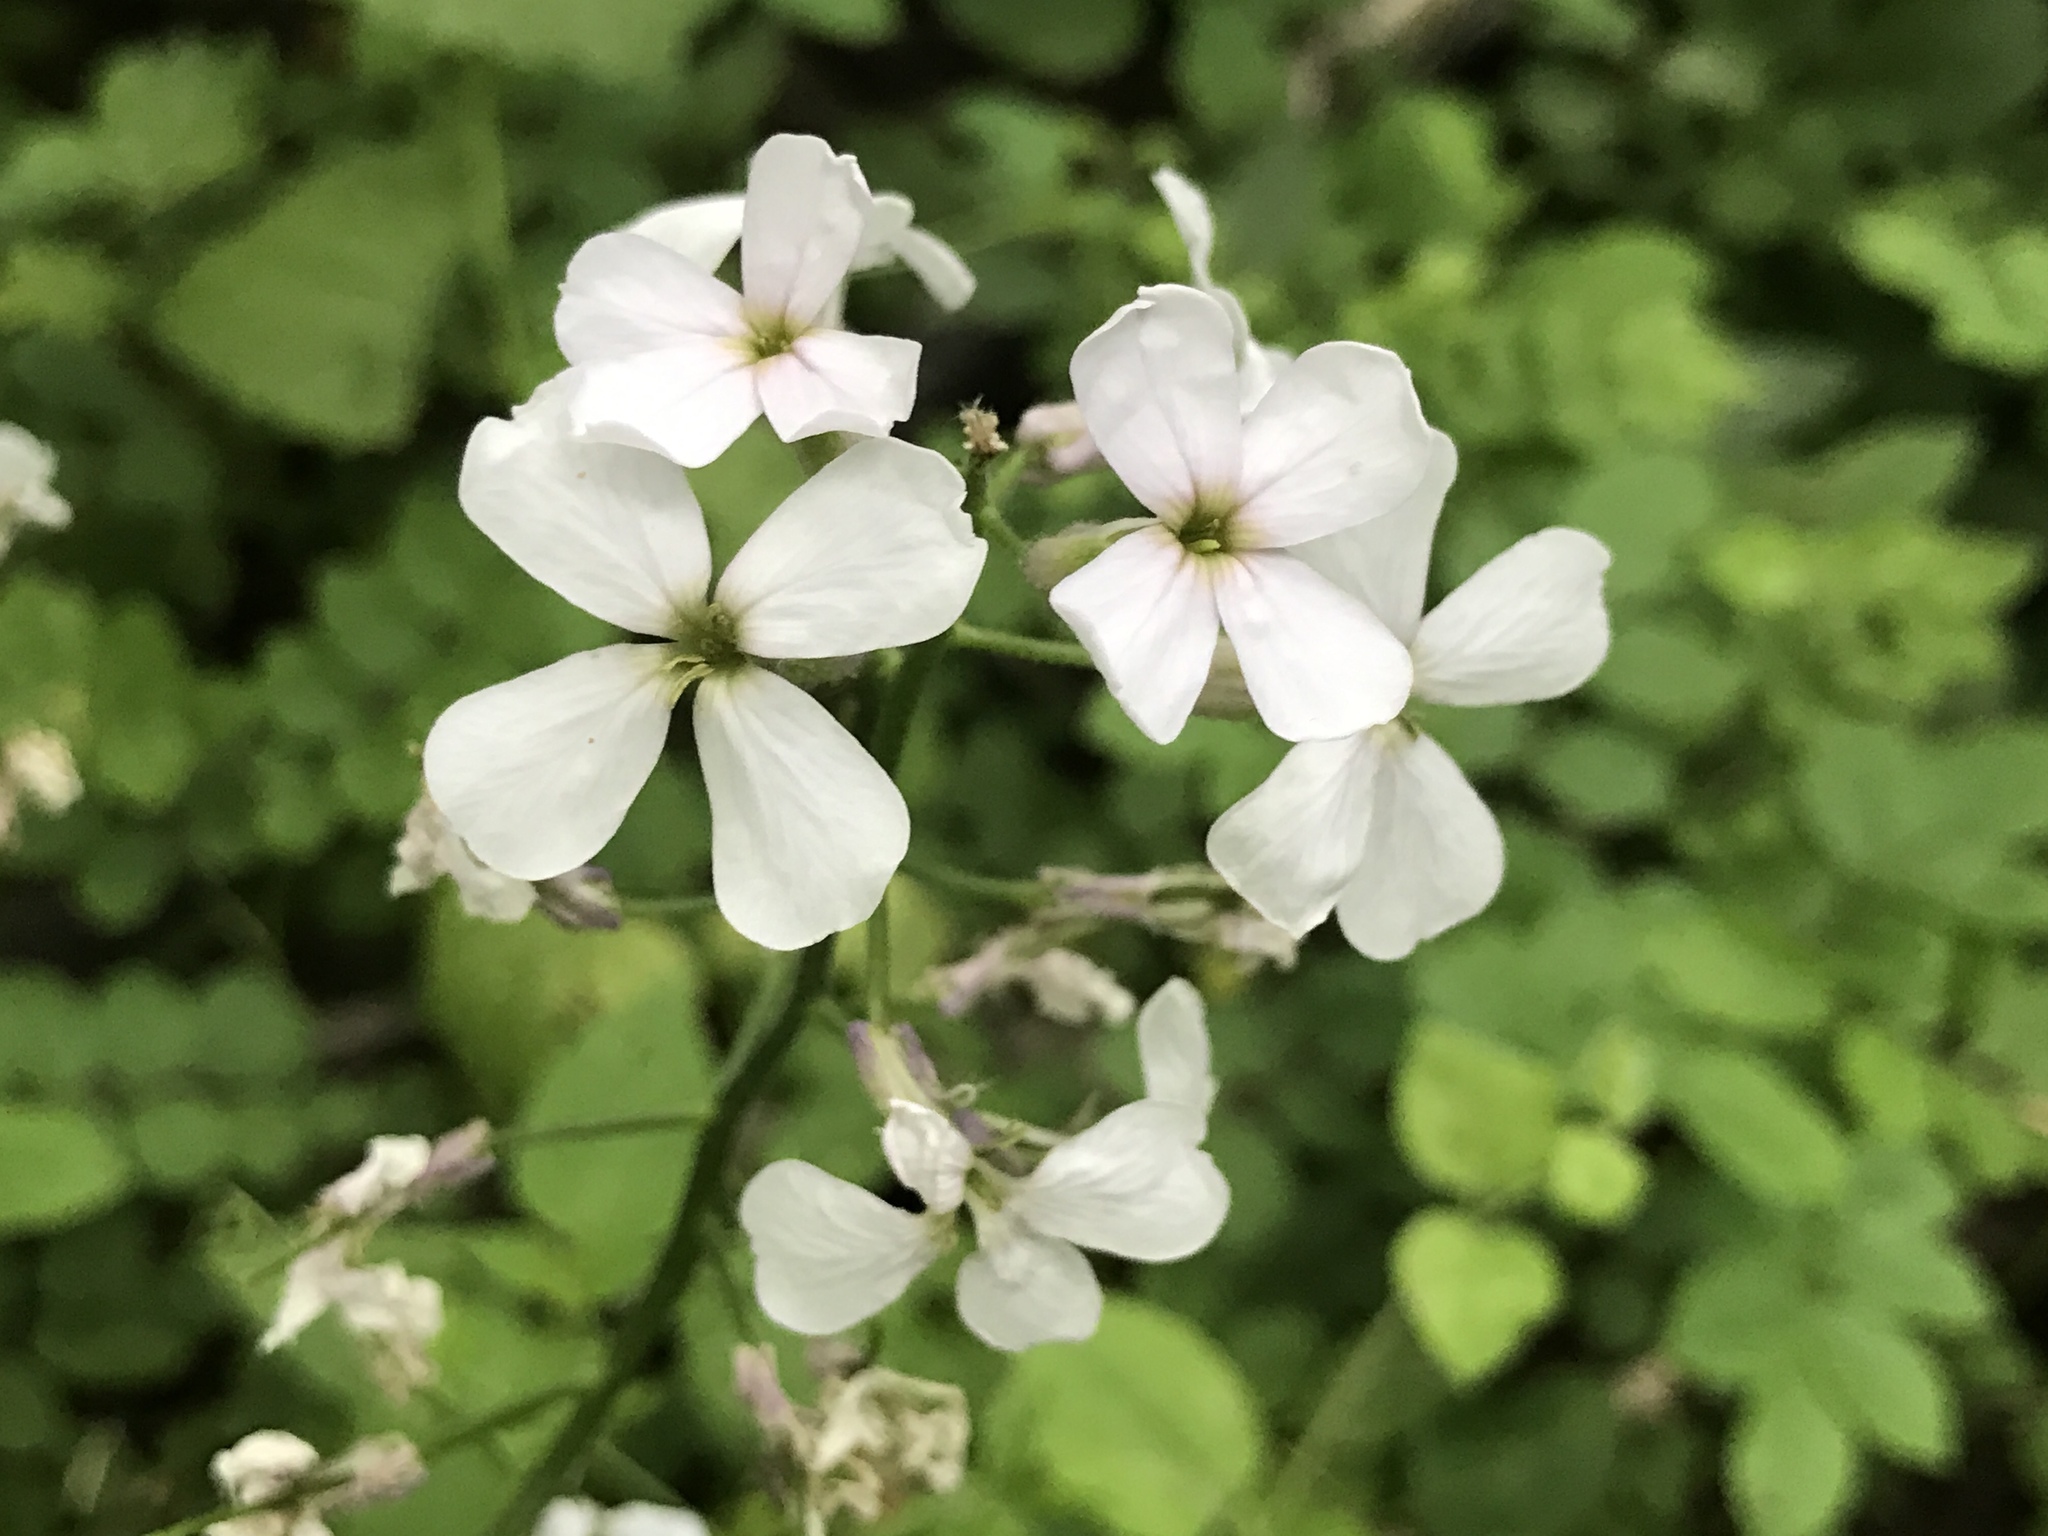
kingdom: Plantae
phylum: Tracheophyta
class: Magnoliopsida
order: Brassicales
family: Brassicaceae
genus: Hesperis
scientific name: Hesperis matronalis
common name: Dame's-violet
